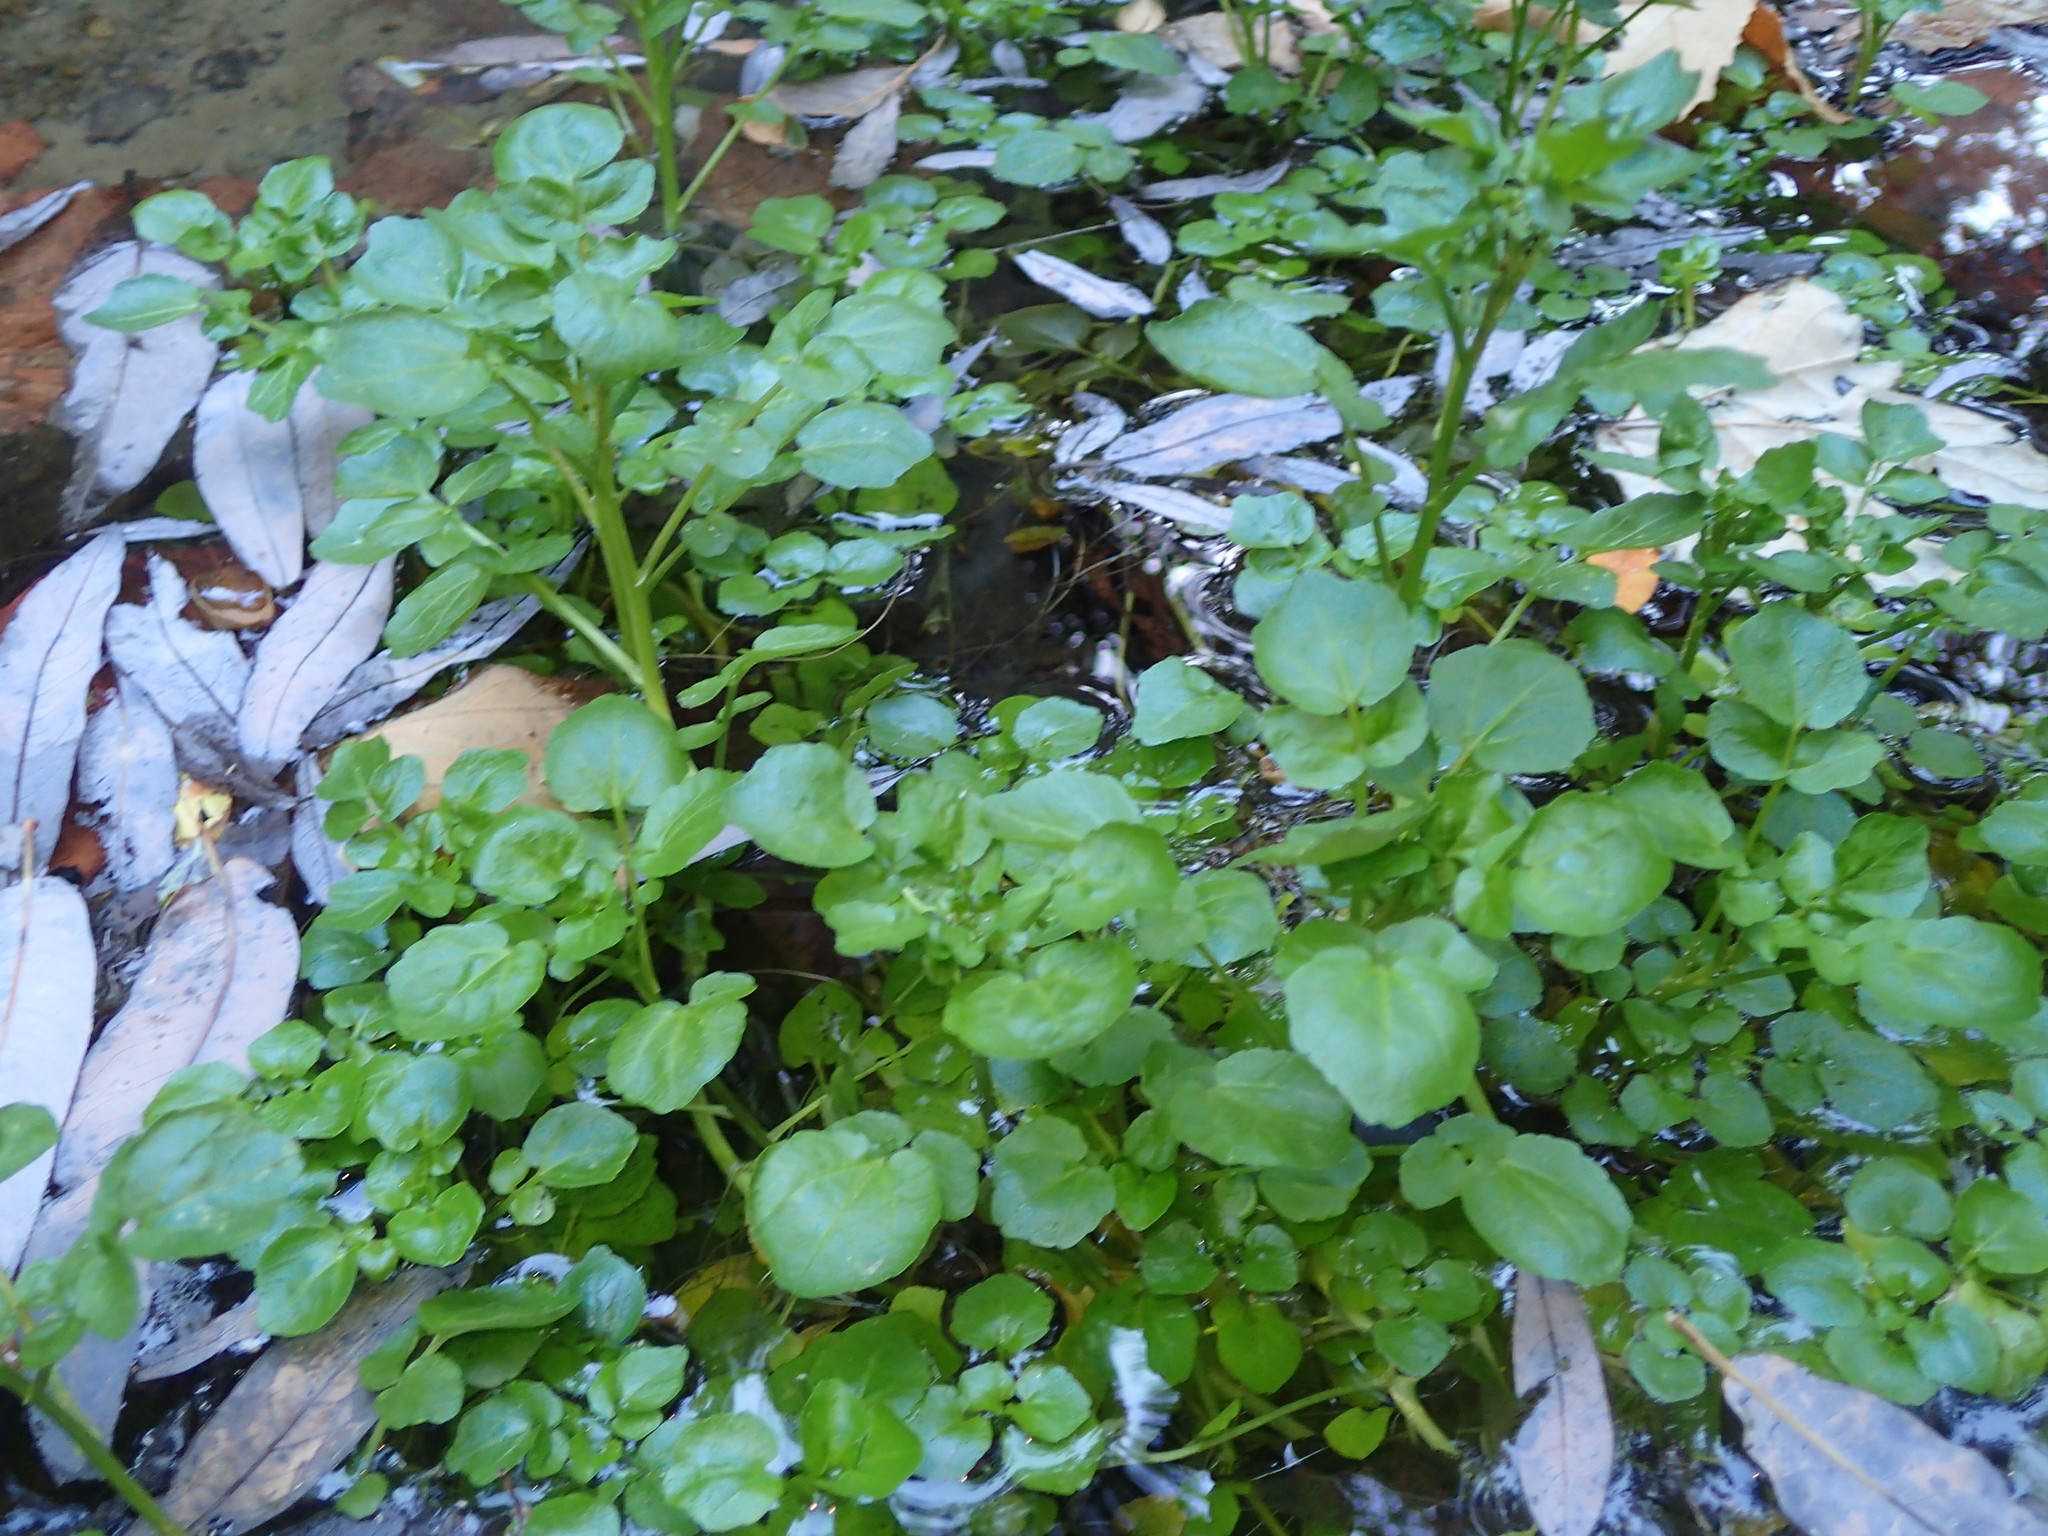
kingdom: Plantae
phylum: Tracheophyta
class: Magnoliopsida
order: Brassicales
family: Brassicaceae
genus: Nasturtium
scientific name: Nasturtium officinale
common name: Watercress
